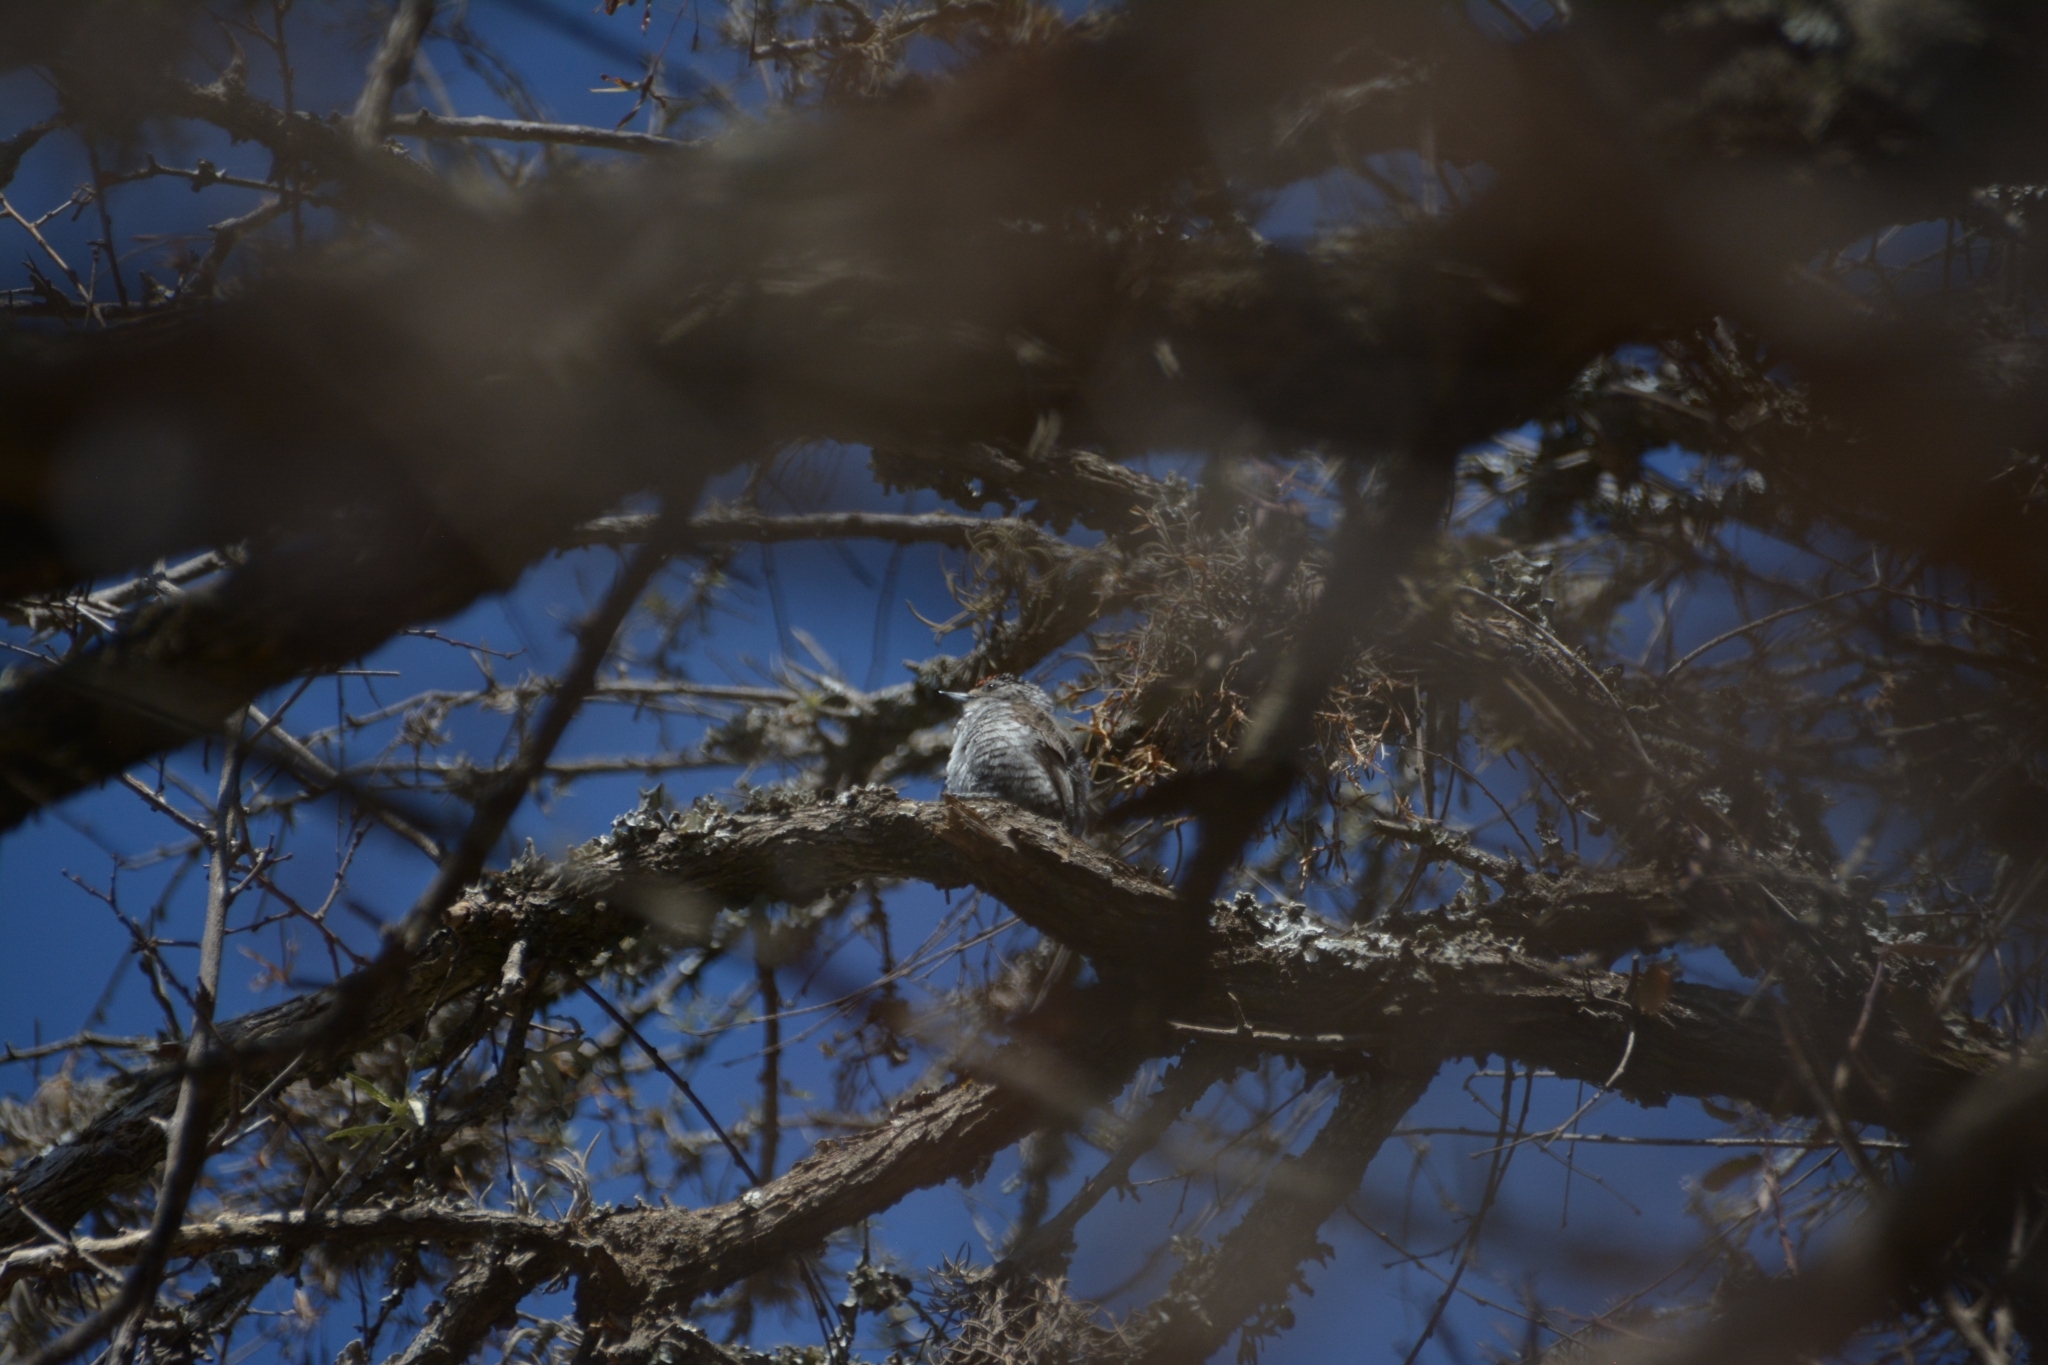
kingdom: Animalia
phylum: Chordata
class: Aves
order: Piciformes
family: Picidae
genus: Picumnus
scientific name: Picumnus cirratus
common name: White-barred piculet
